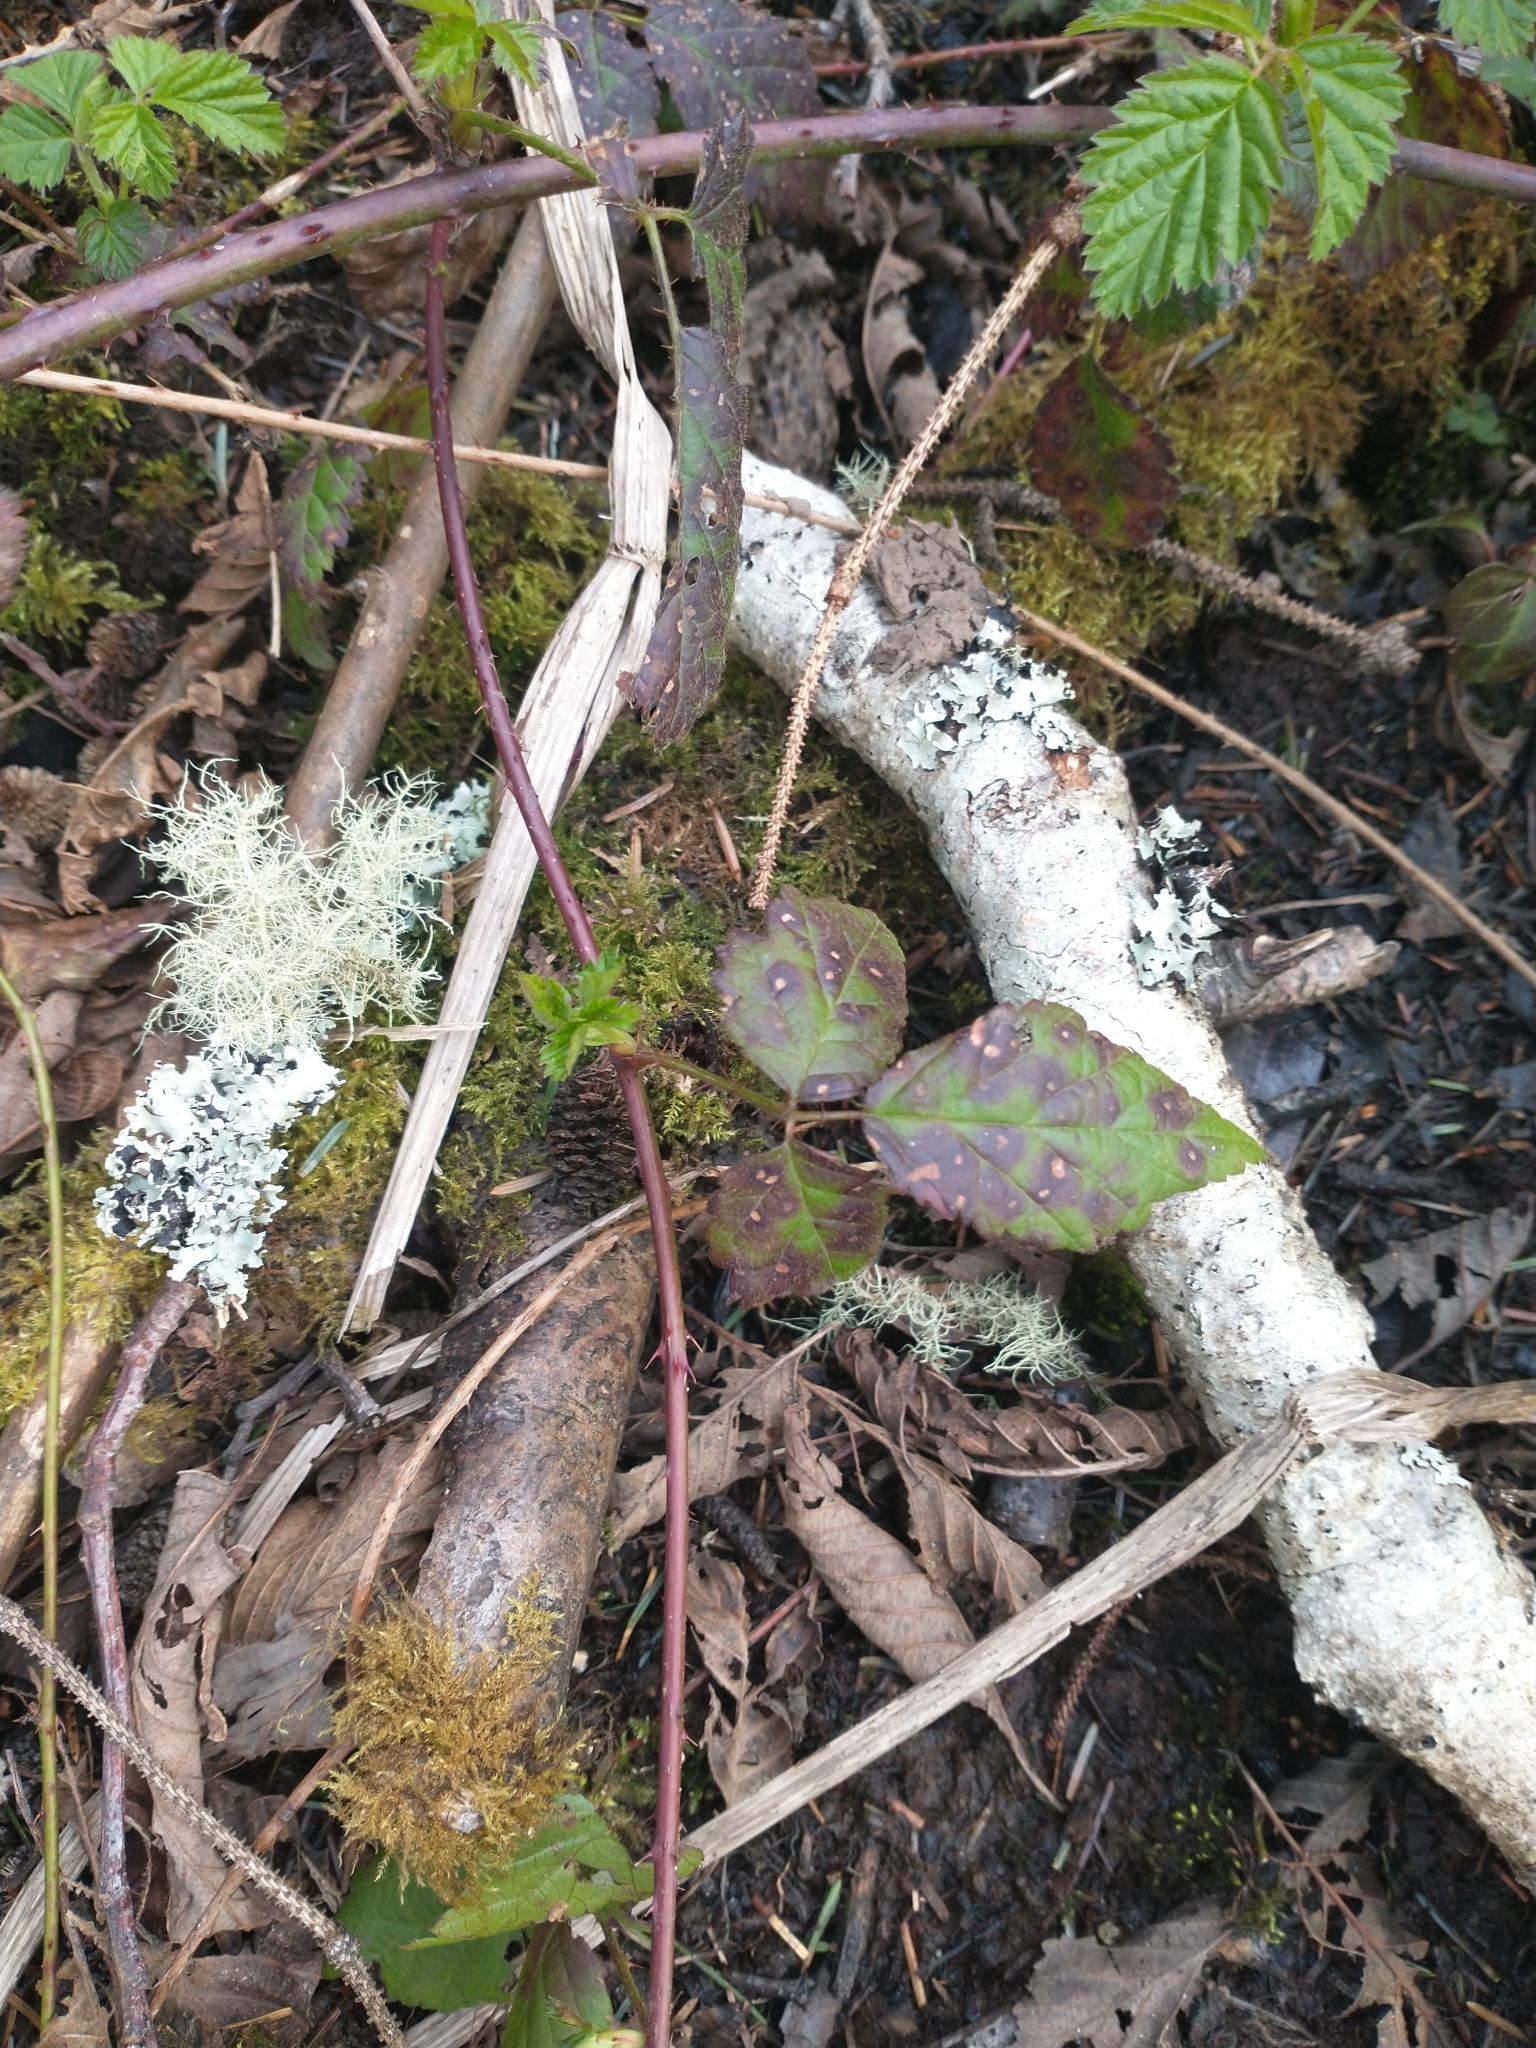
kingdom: Plantae
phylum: Tracheophyta
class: Magnoliopsida
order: Rosales
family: Rosaceae
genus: Rubus
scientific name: Rubus ursinus
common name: Pacific blackberry
